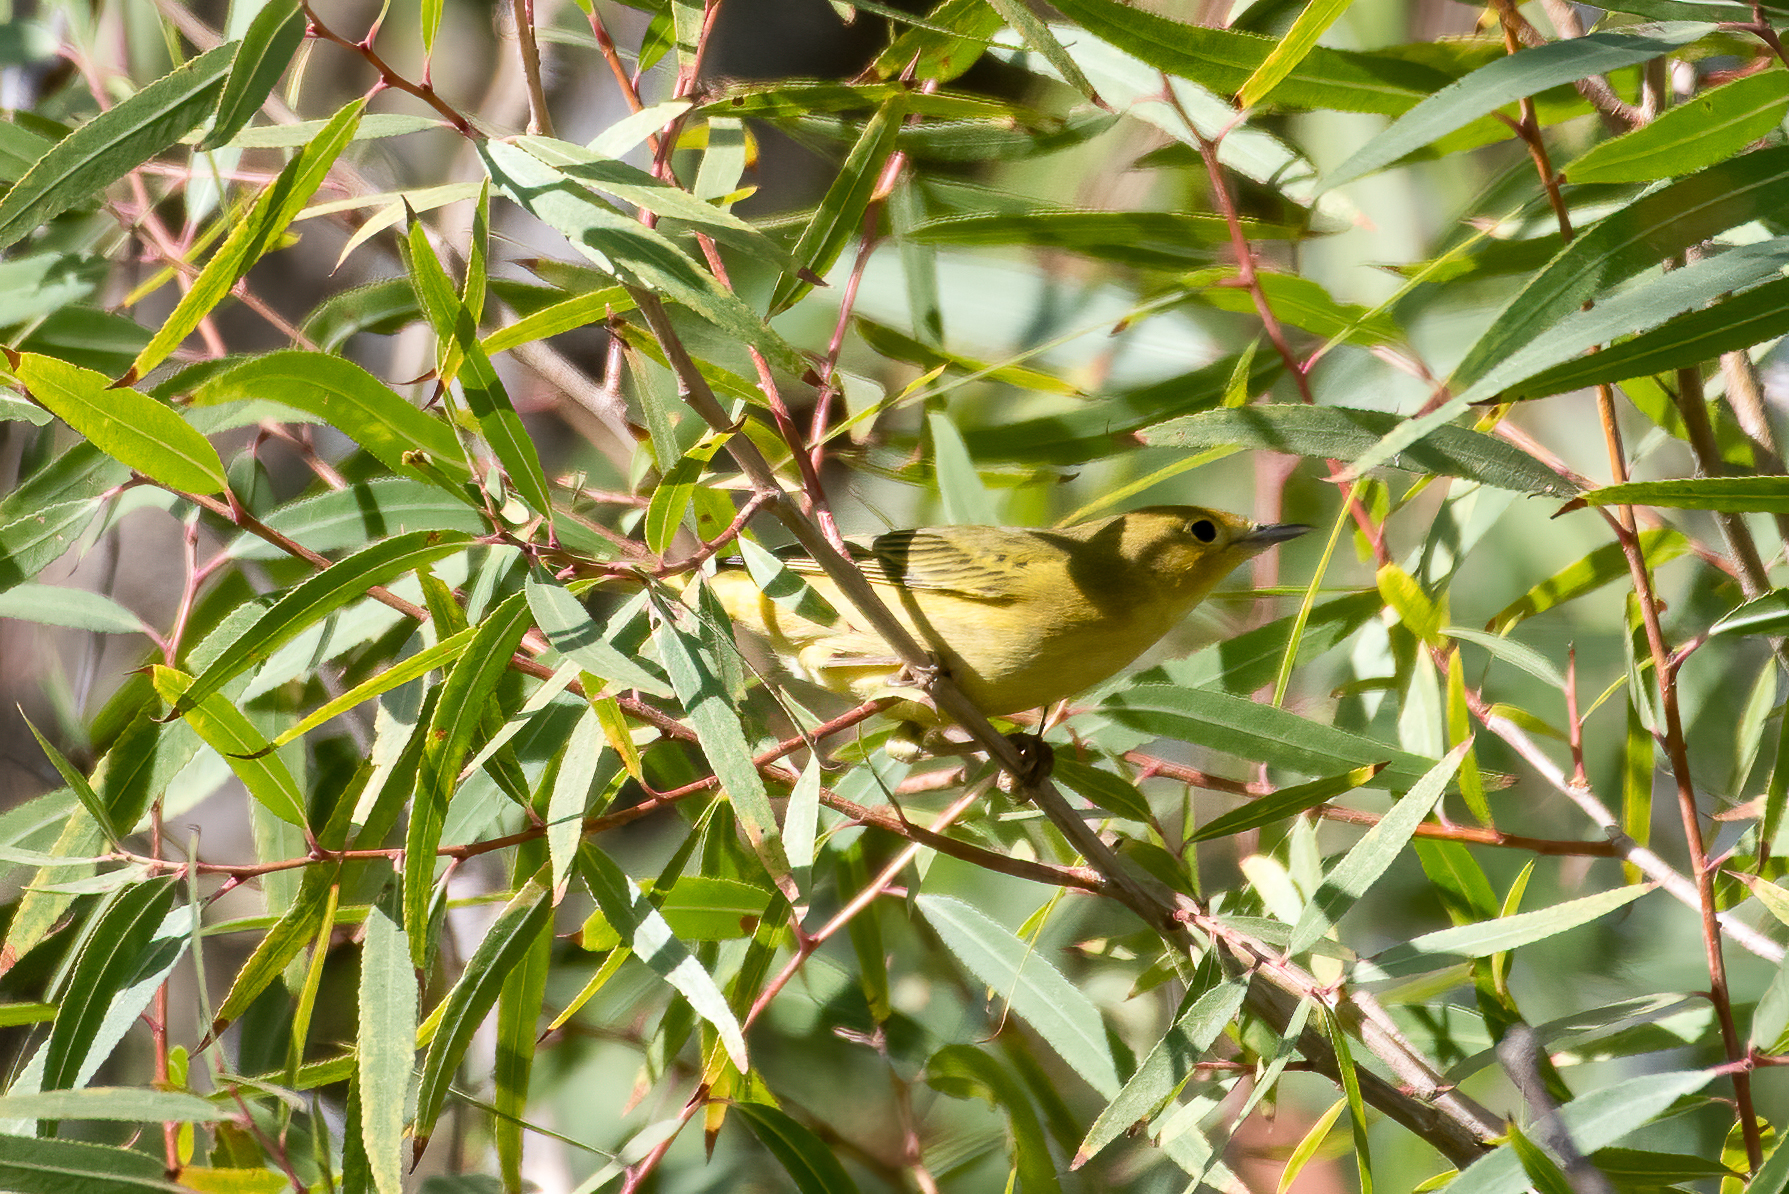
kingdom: Animalia
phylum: Chordata
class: Aves
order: Passeriformes
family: Parulidae
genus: Setophaga
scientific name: Setophaga petechia
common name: Yellow warbler
